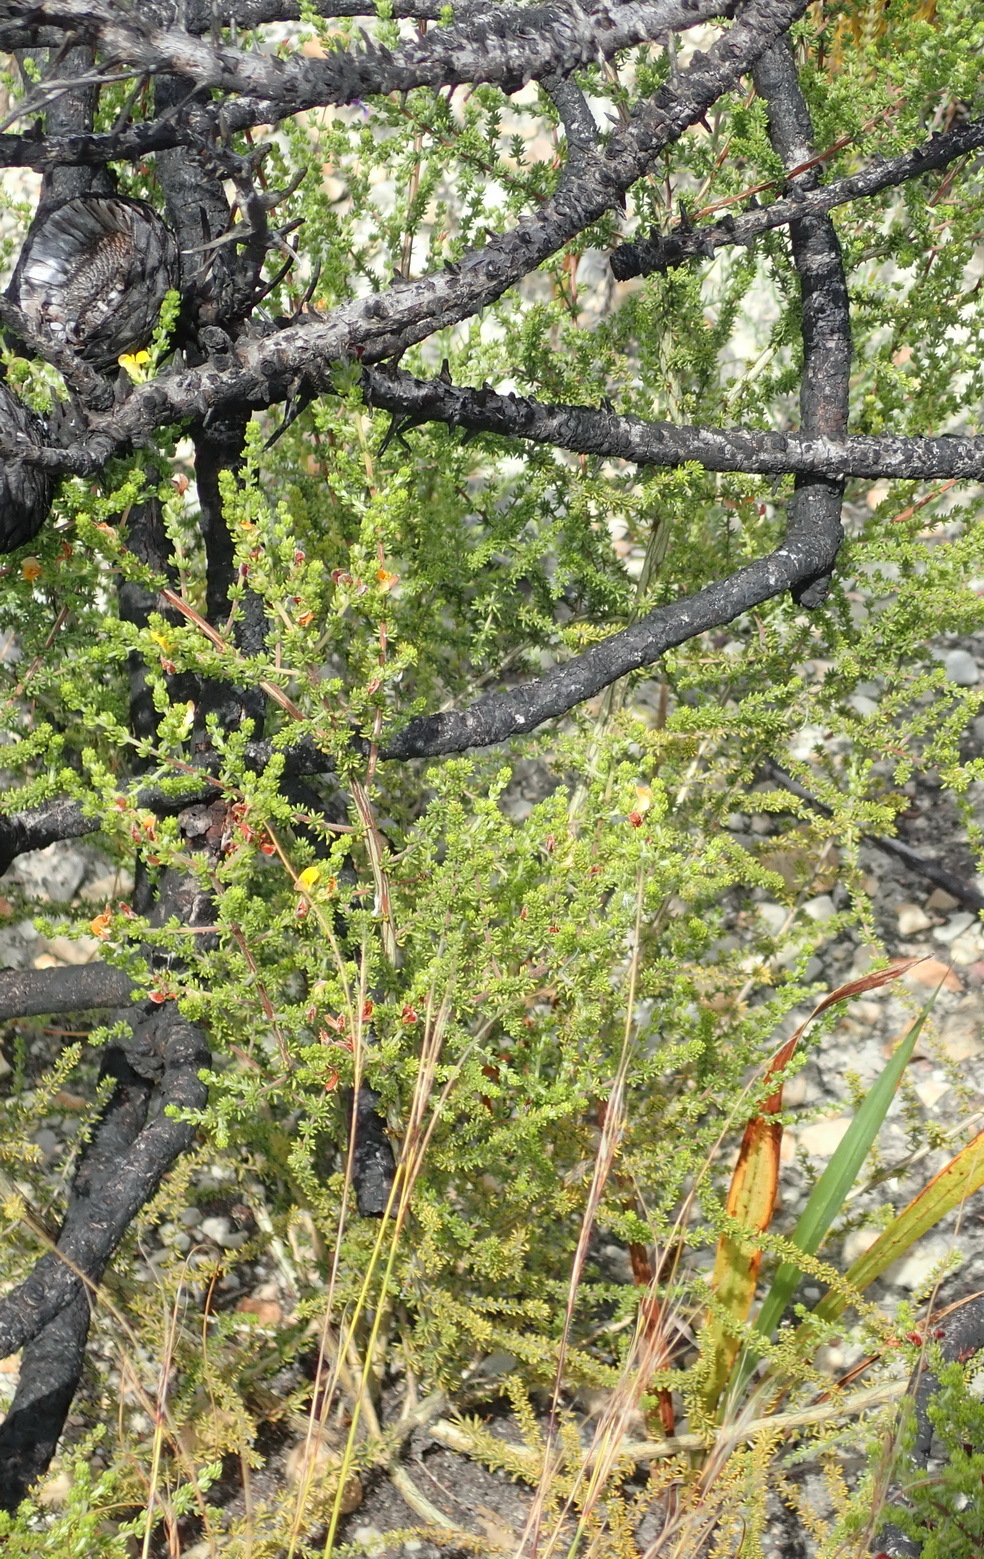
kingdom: Plantae
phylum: Tracheophyta
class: Magnoliopsida
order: Fabales
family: Fabaceae
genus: Aspalathus
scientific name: Aspalathus opaca
